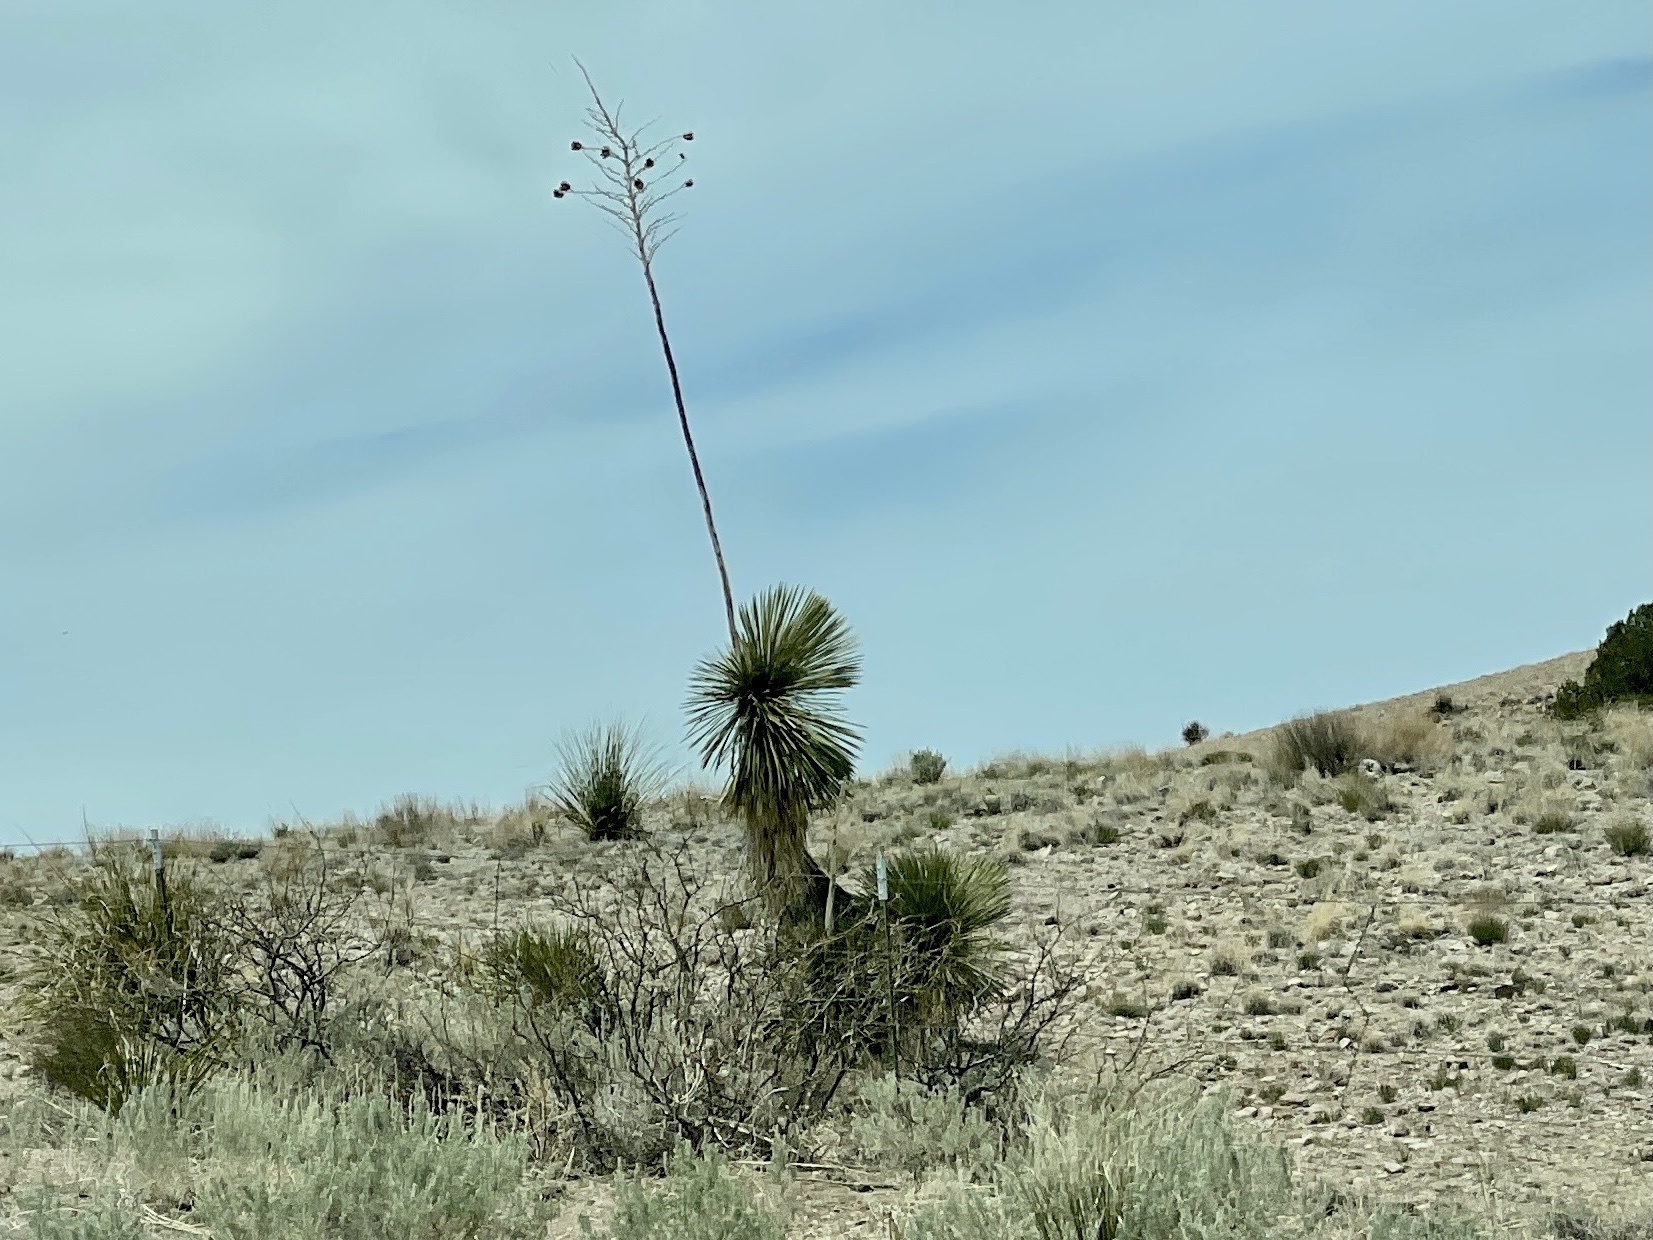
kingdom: Plantae
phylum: Tracheophyta
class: Liliopsida
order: Asparagales
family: Asparagaceae
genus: Yucca
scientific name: Yucca elata
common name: Palmella
